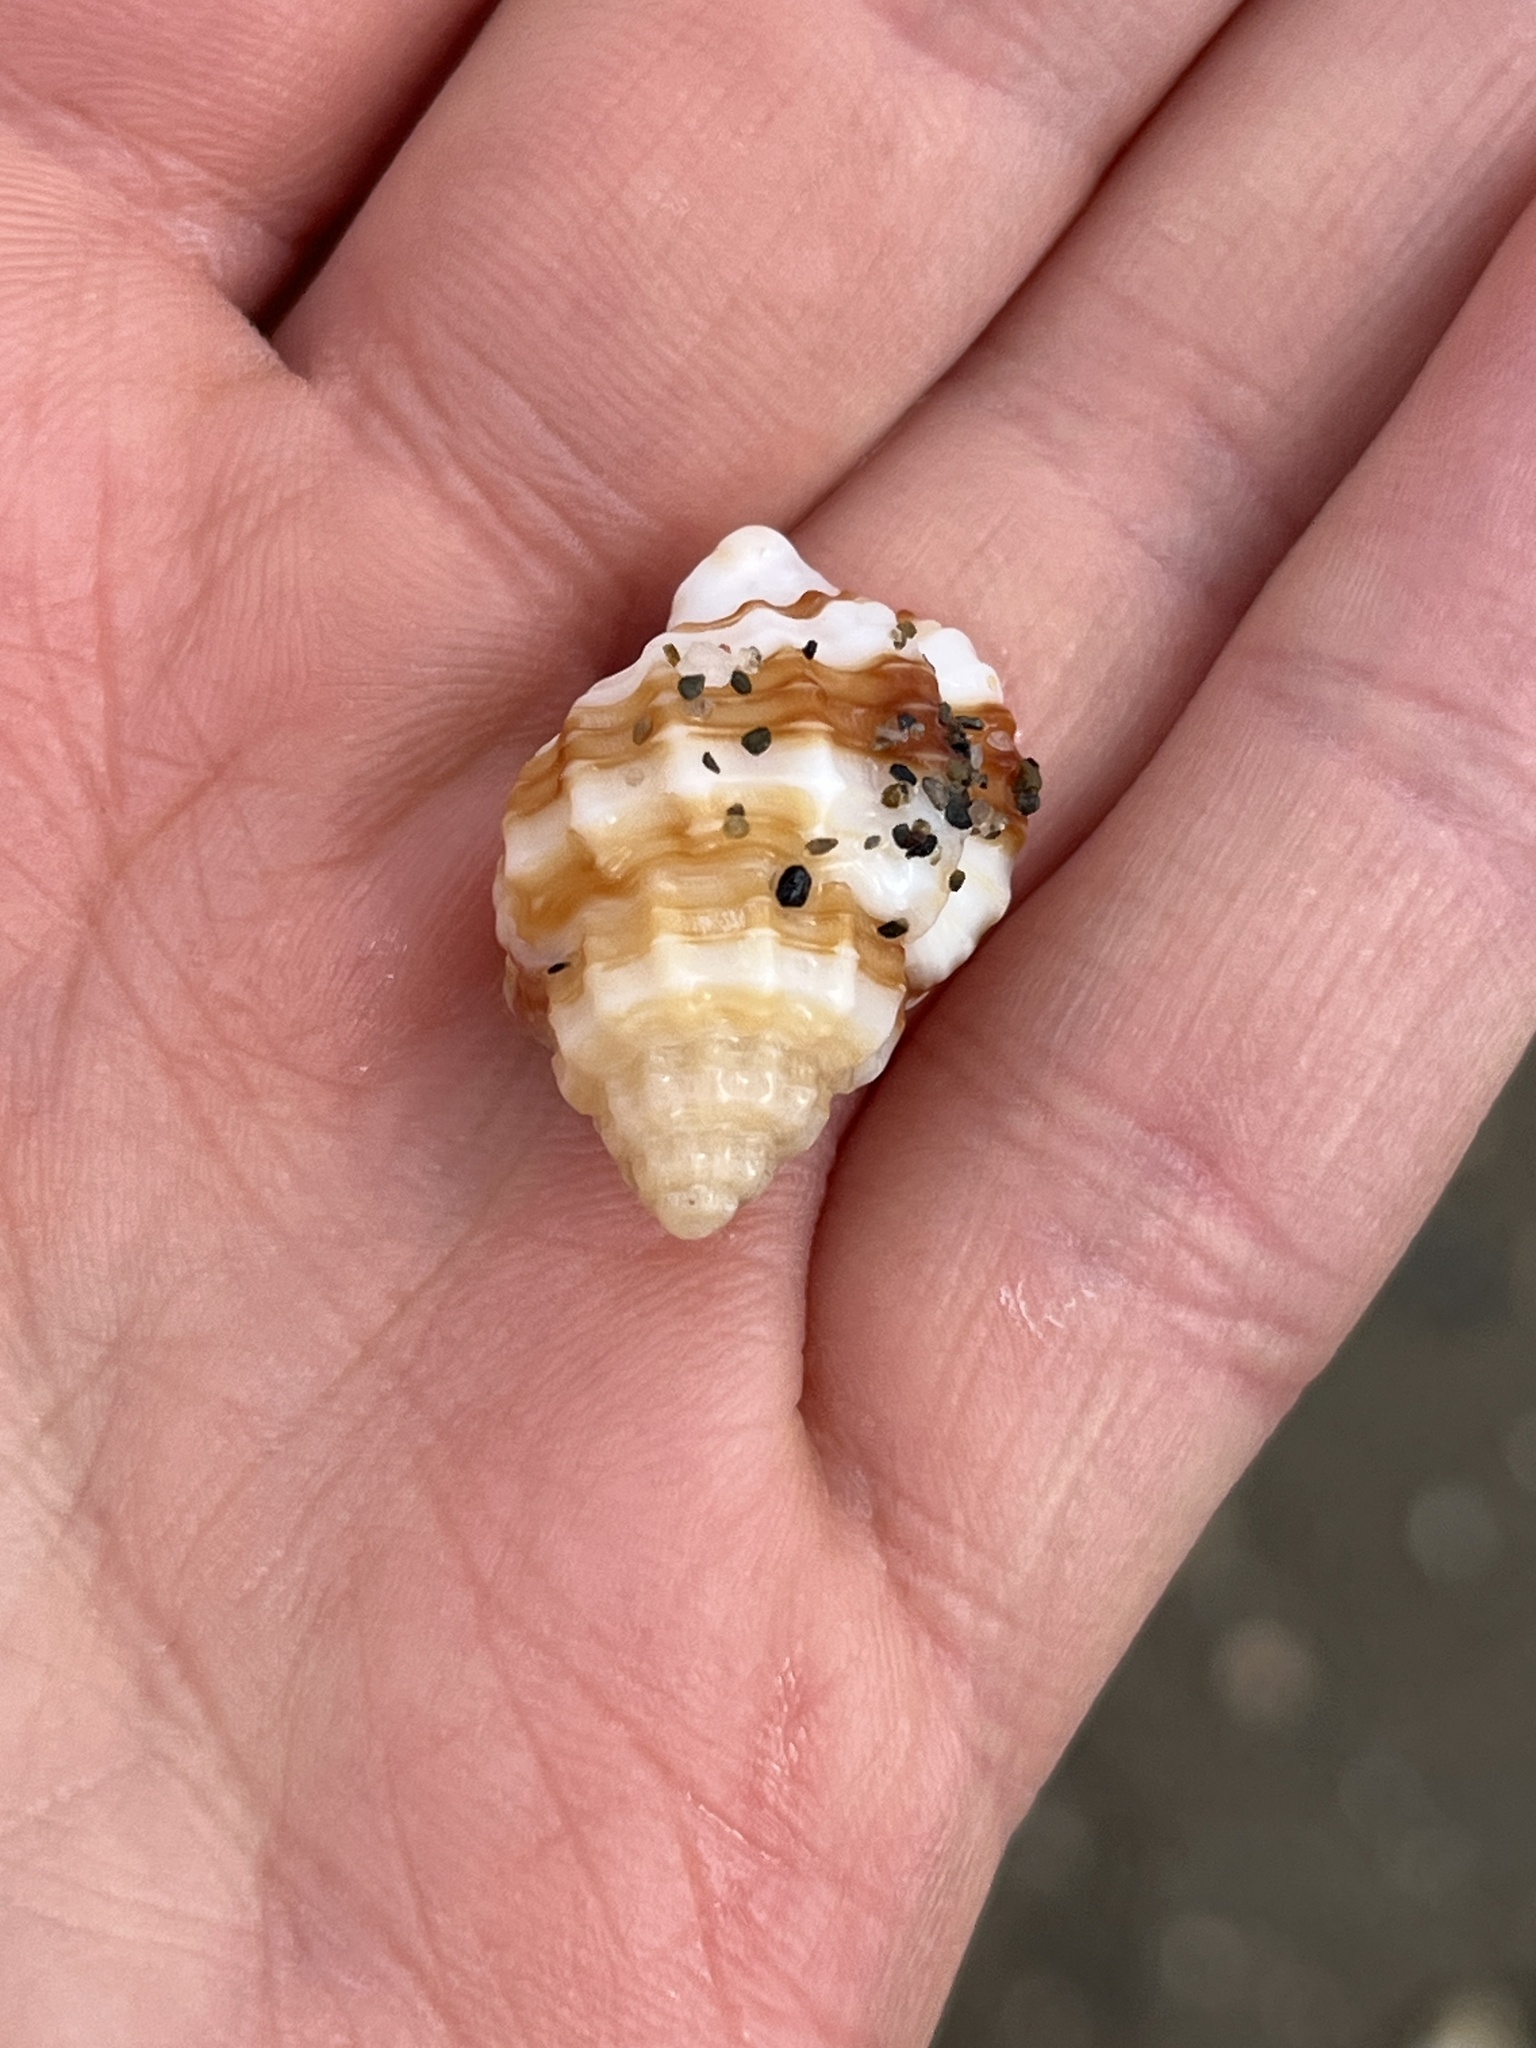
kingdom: Animalia
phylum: Mollusca
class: Gastropoda
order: Neogastropoda
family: Cancellariidae
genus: Bivetiella
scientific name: Bivetiella cancellata
